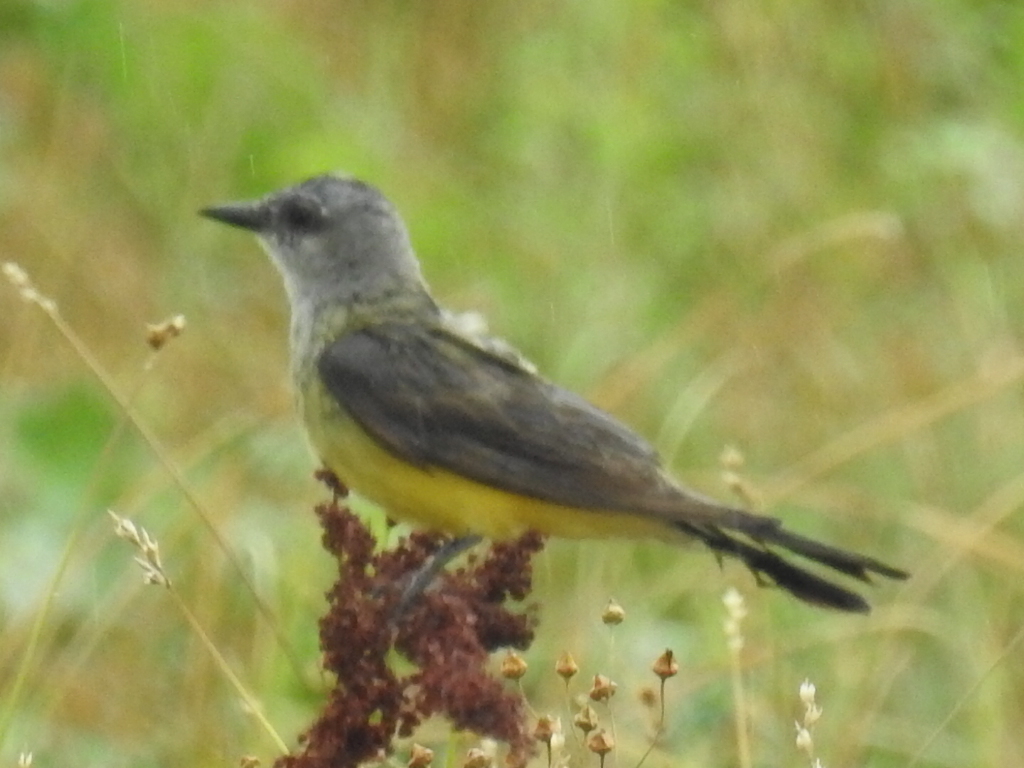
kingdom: Animalia
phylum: Chordata
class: Aves
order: Passeriformes
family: Tyrannidae
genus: Tyrannus
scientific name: Tyrannus verticalis
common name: Western kingbird
